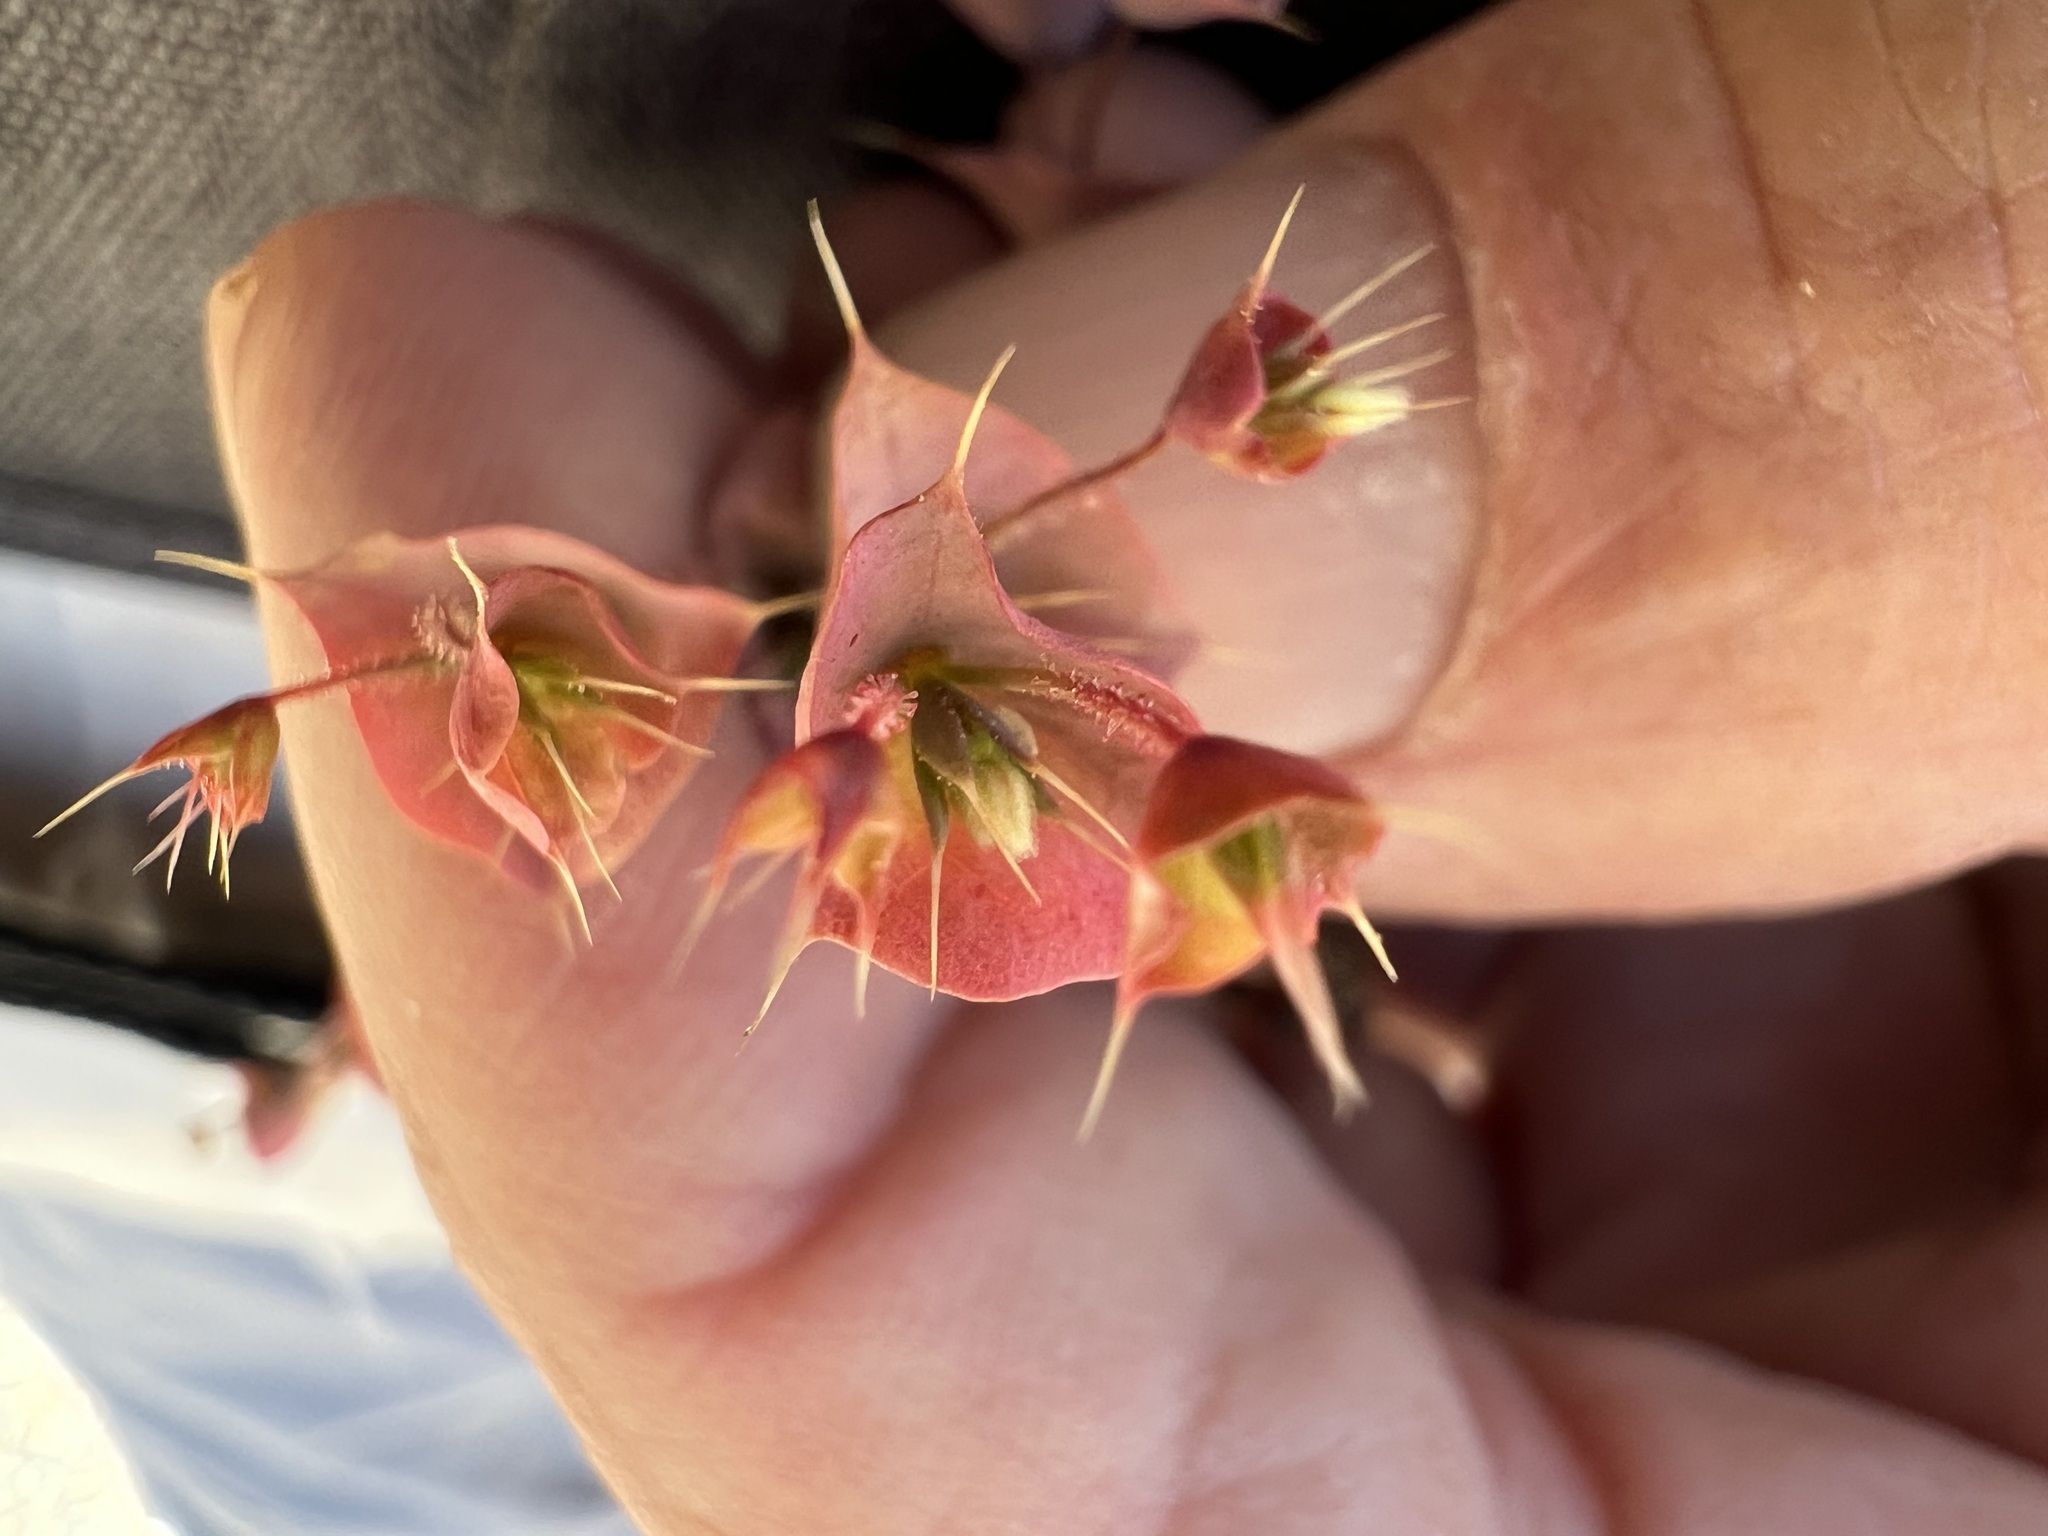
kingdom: Plantae
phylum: Tracheophyta
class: Magnoliopsida
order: Caryophyllales
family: Polygonaceae
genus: Oxytheca
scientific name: Oxytheca perfoliata
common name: Round-leaf puncturebract
